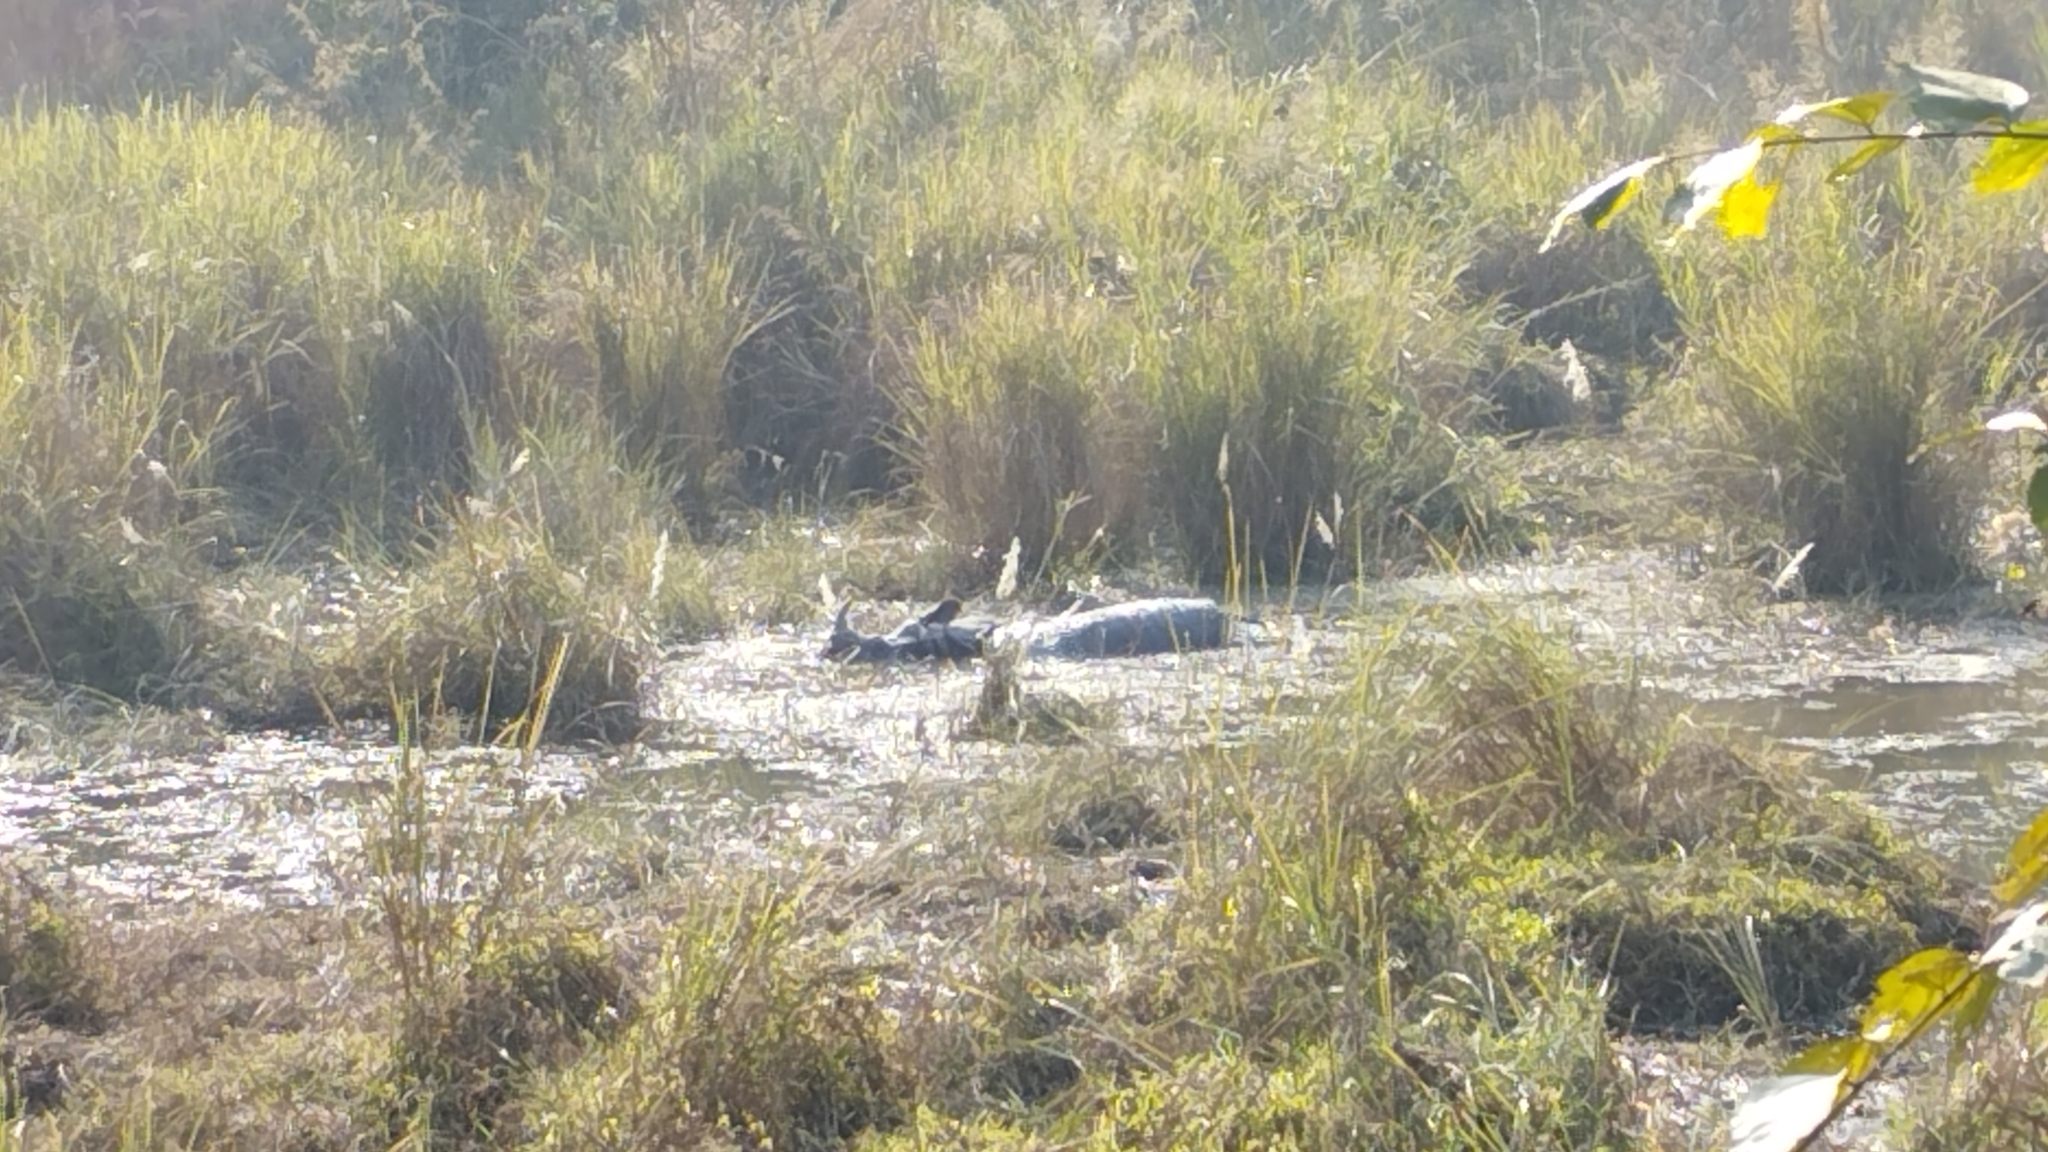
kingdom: Animalia
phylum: Chordata
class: Mammalia
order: Perissodactyla
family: Rhinocerotidae
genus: Rhinoceros
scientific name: Rhinoceros unicornis
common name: Indian rhinoceros
